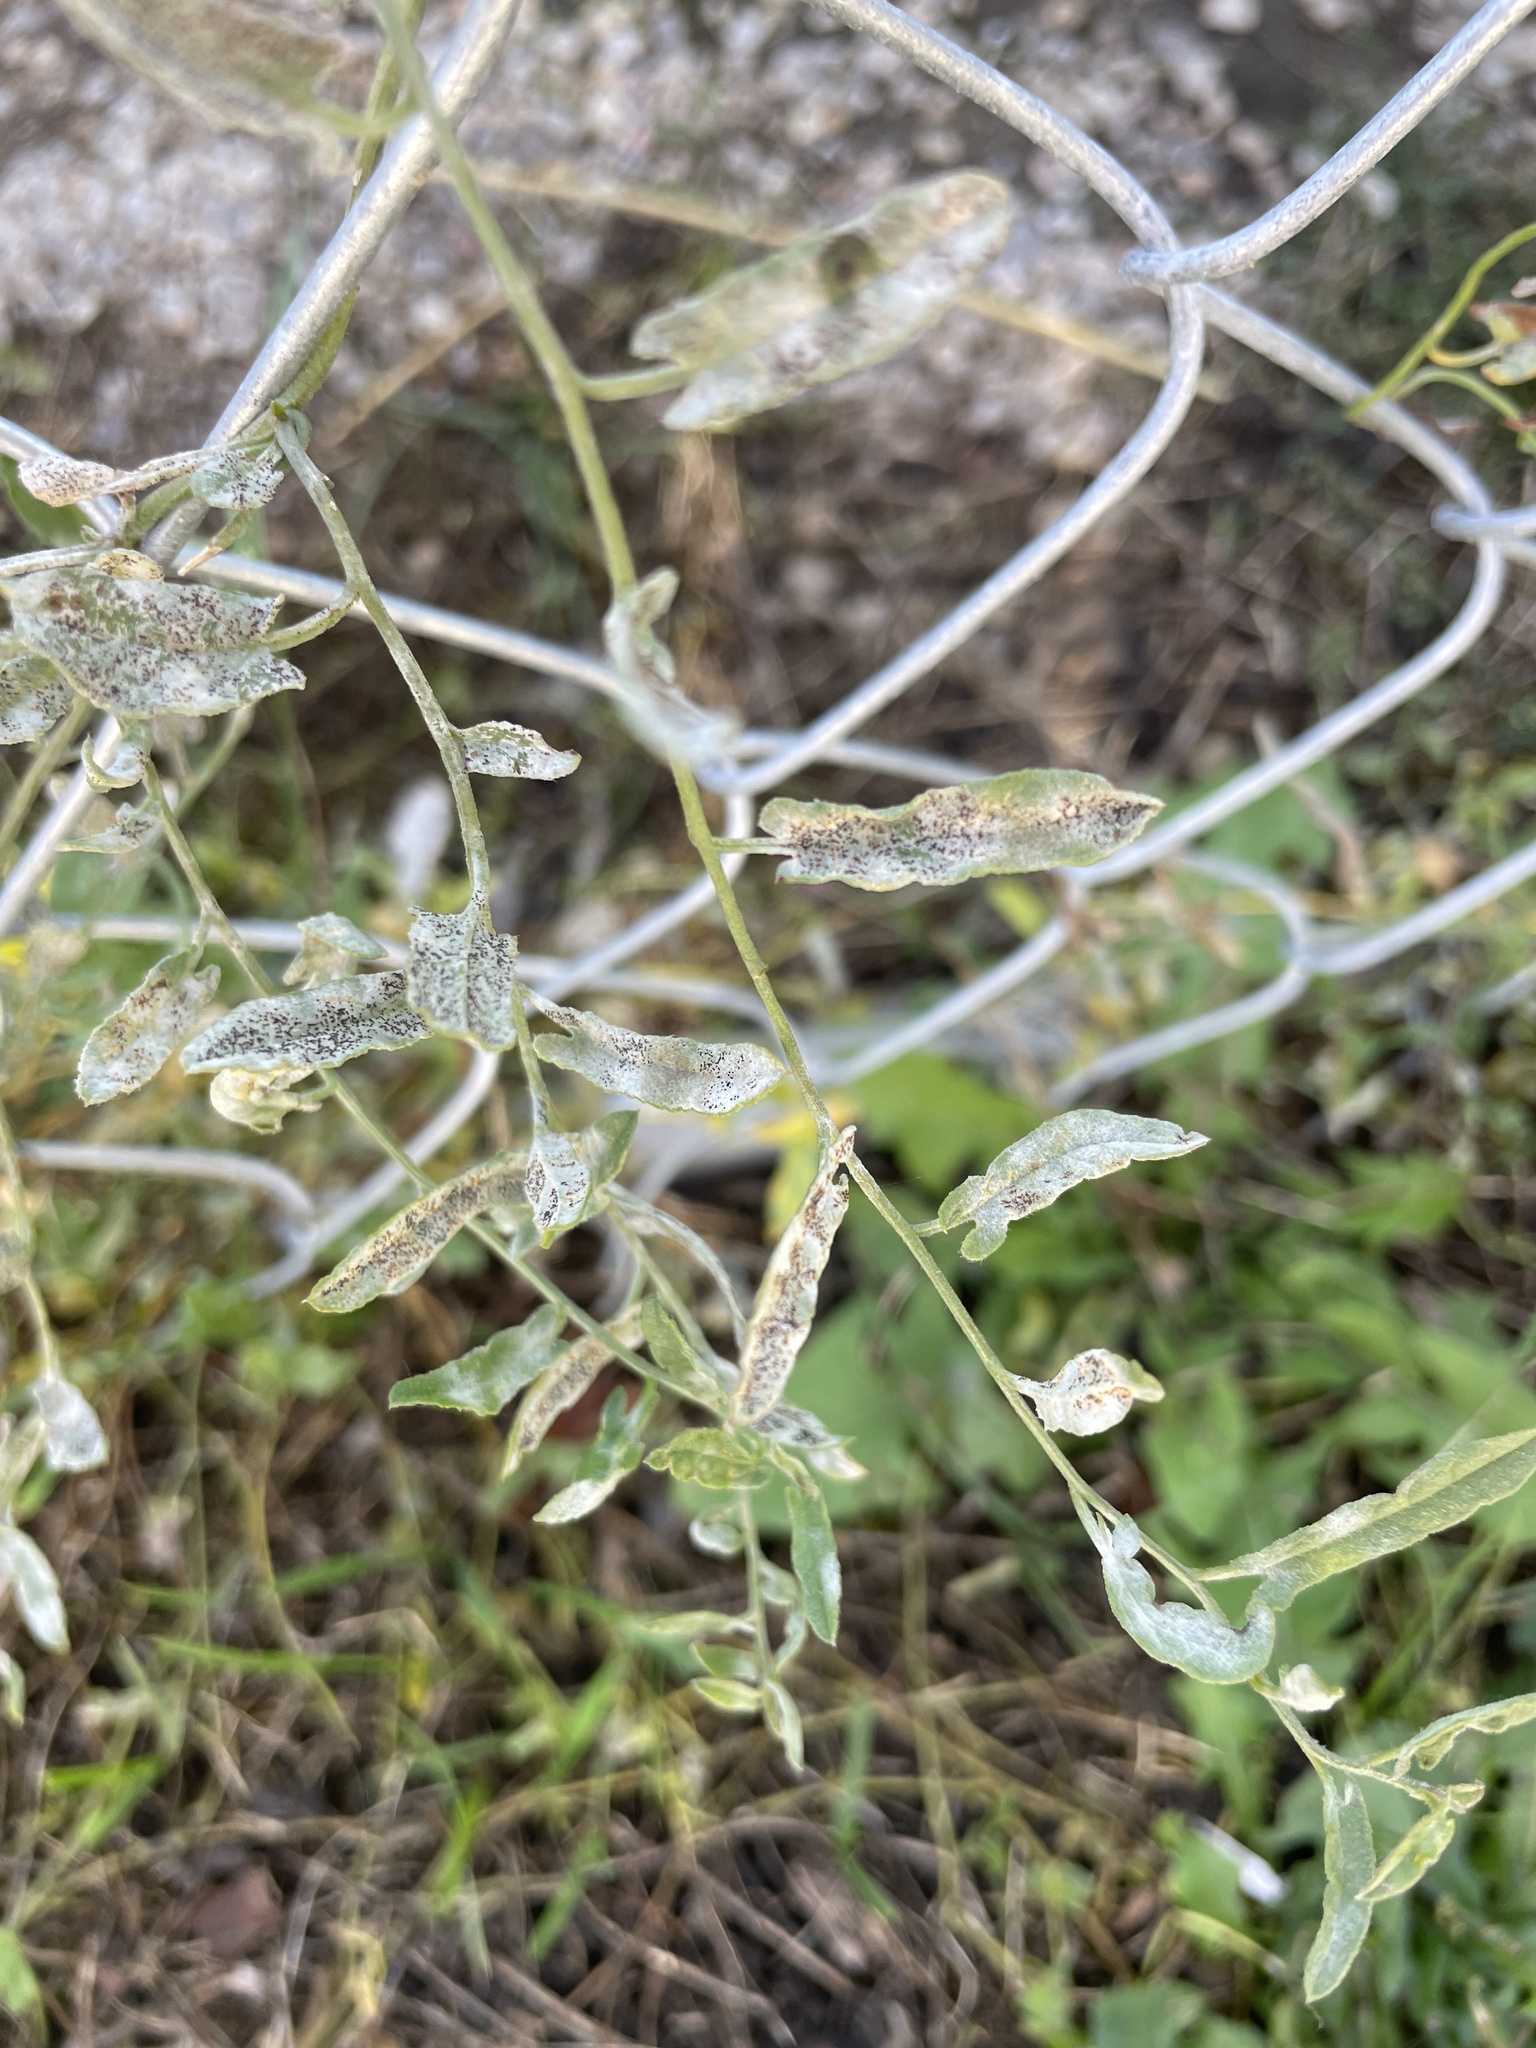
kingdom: Fungi
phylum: Ascomycota
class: Leotiomycetes
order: Helotiales
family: Erysiphaceae
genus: Erysiphe
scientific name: Erysiphe convolvuli
